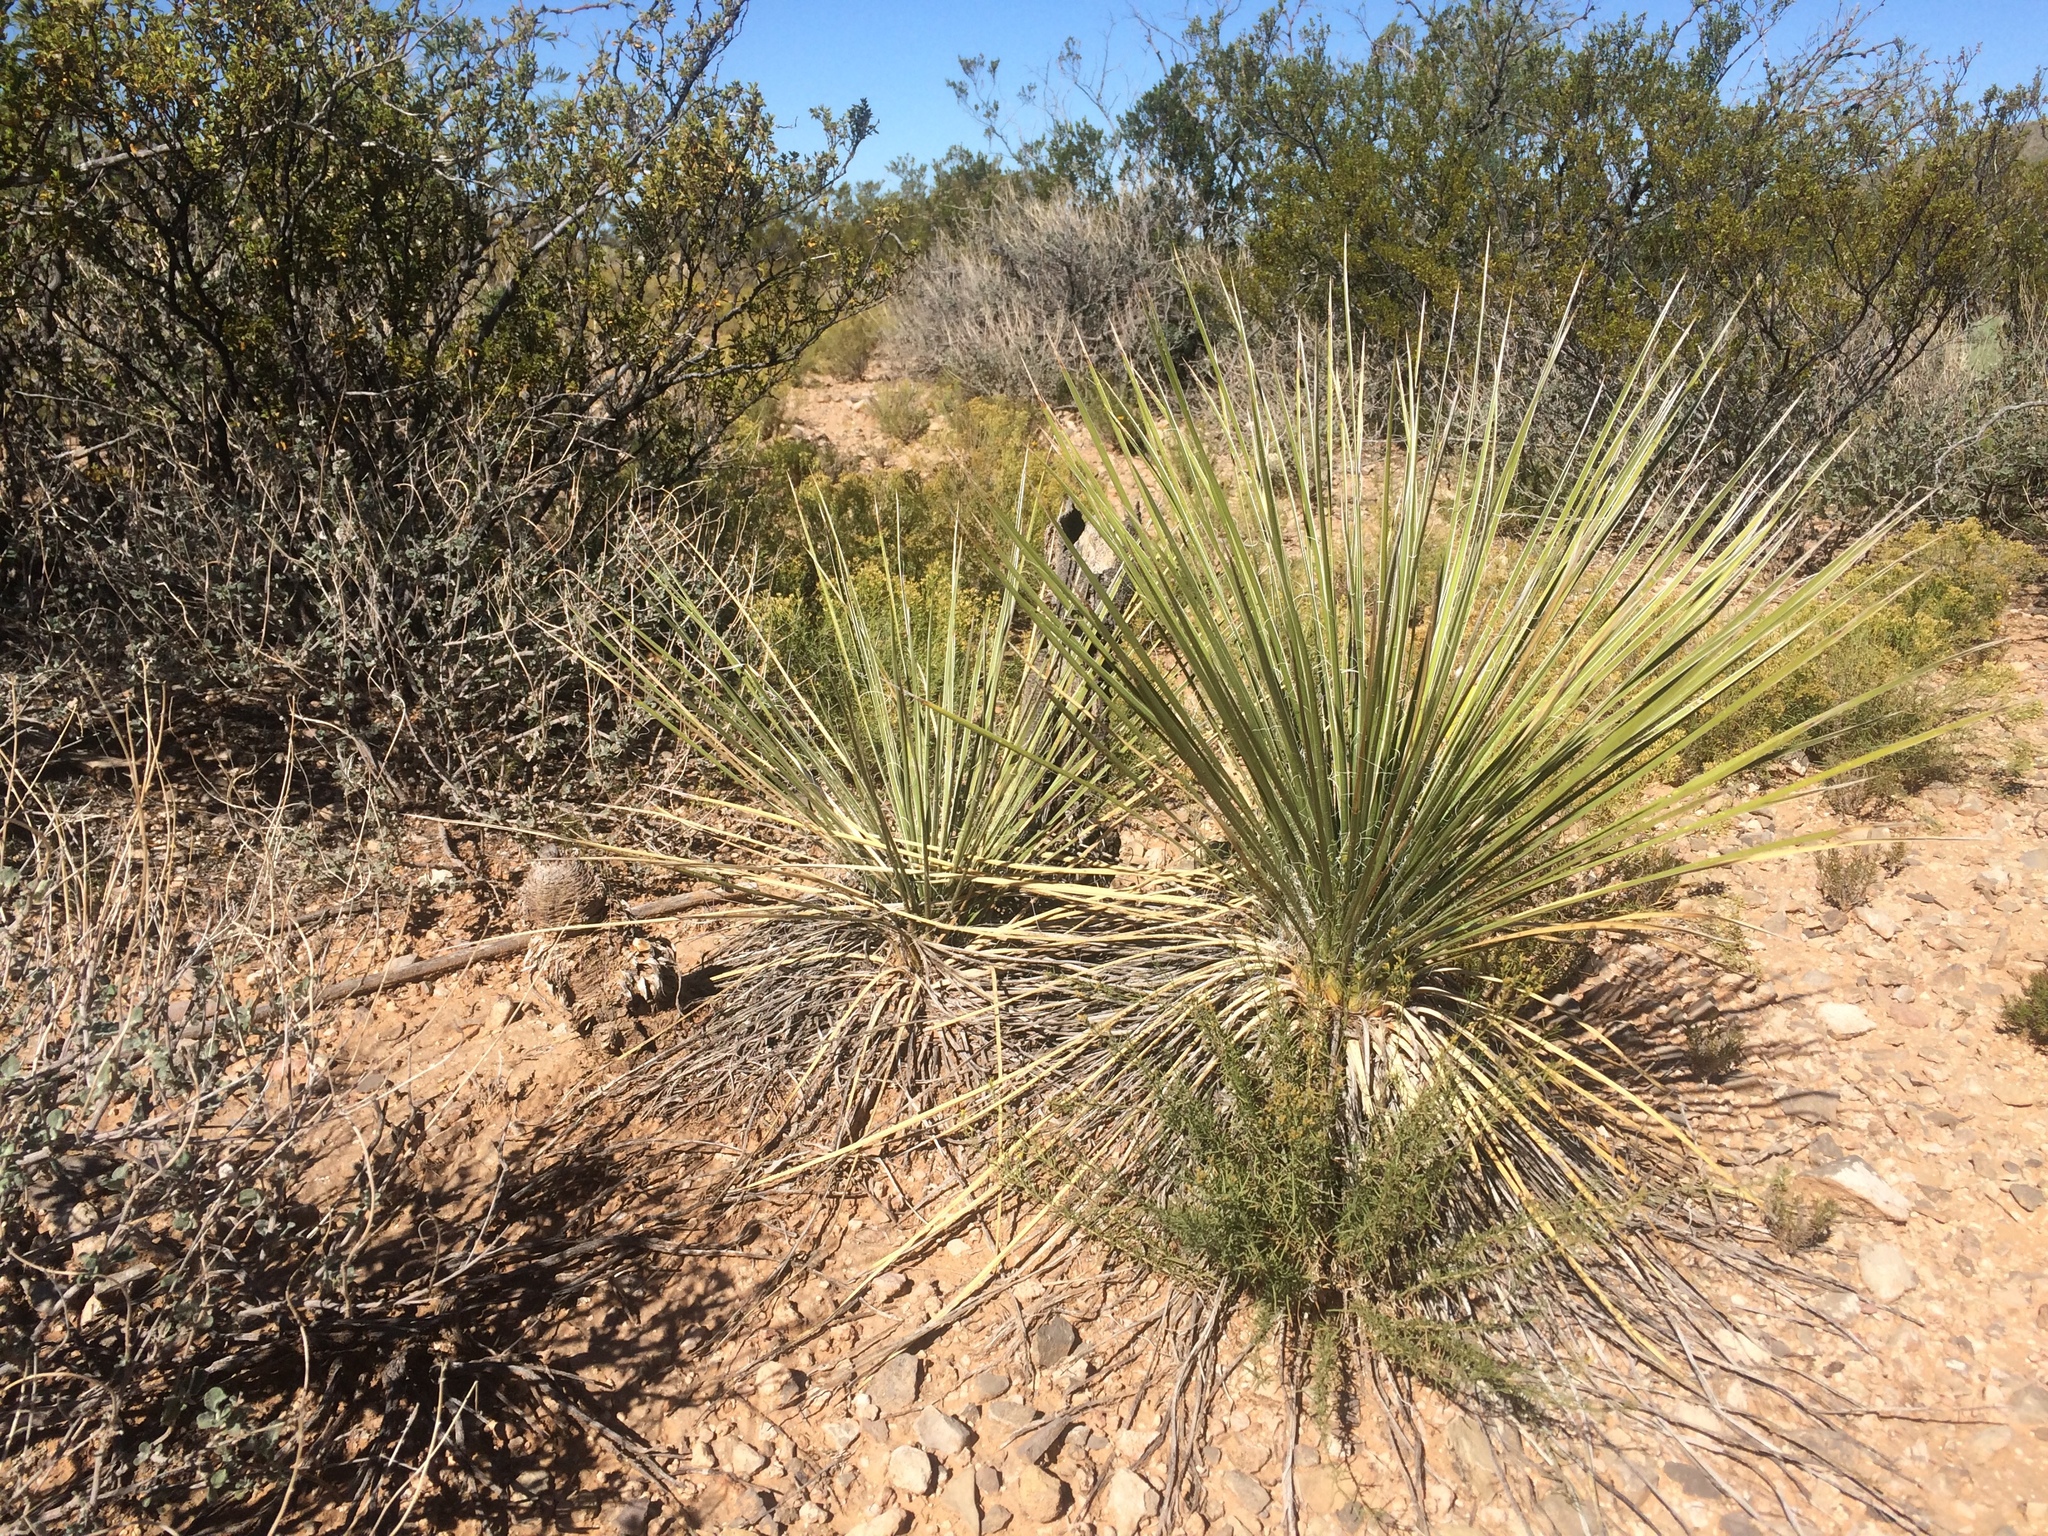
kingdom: Plantae
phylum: Tracheophyta
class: Liliopsida
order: Asparagales
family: Asparagaceae
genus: Yucca
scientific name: Yucca elata
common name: Palmella
